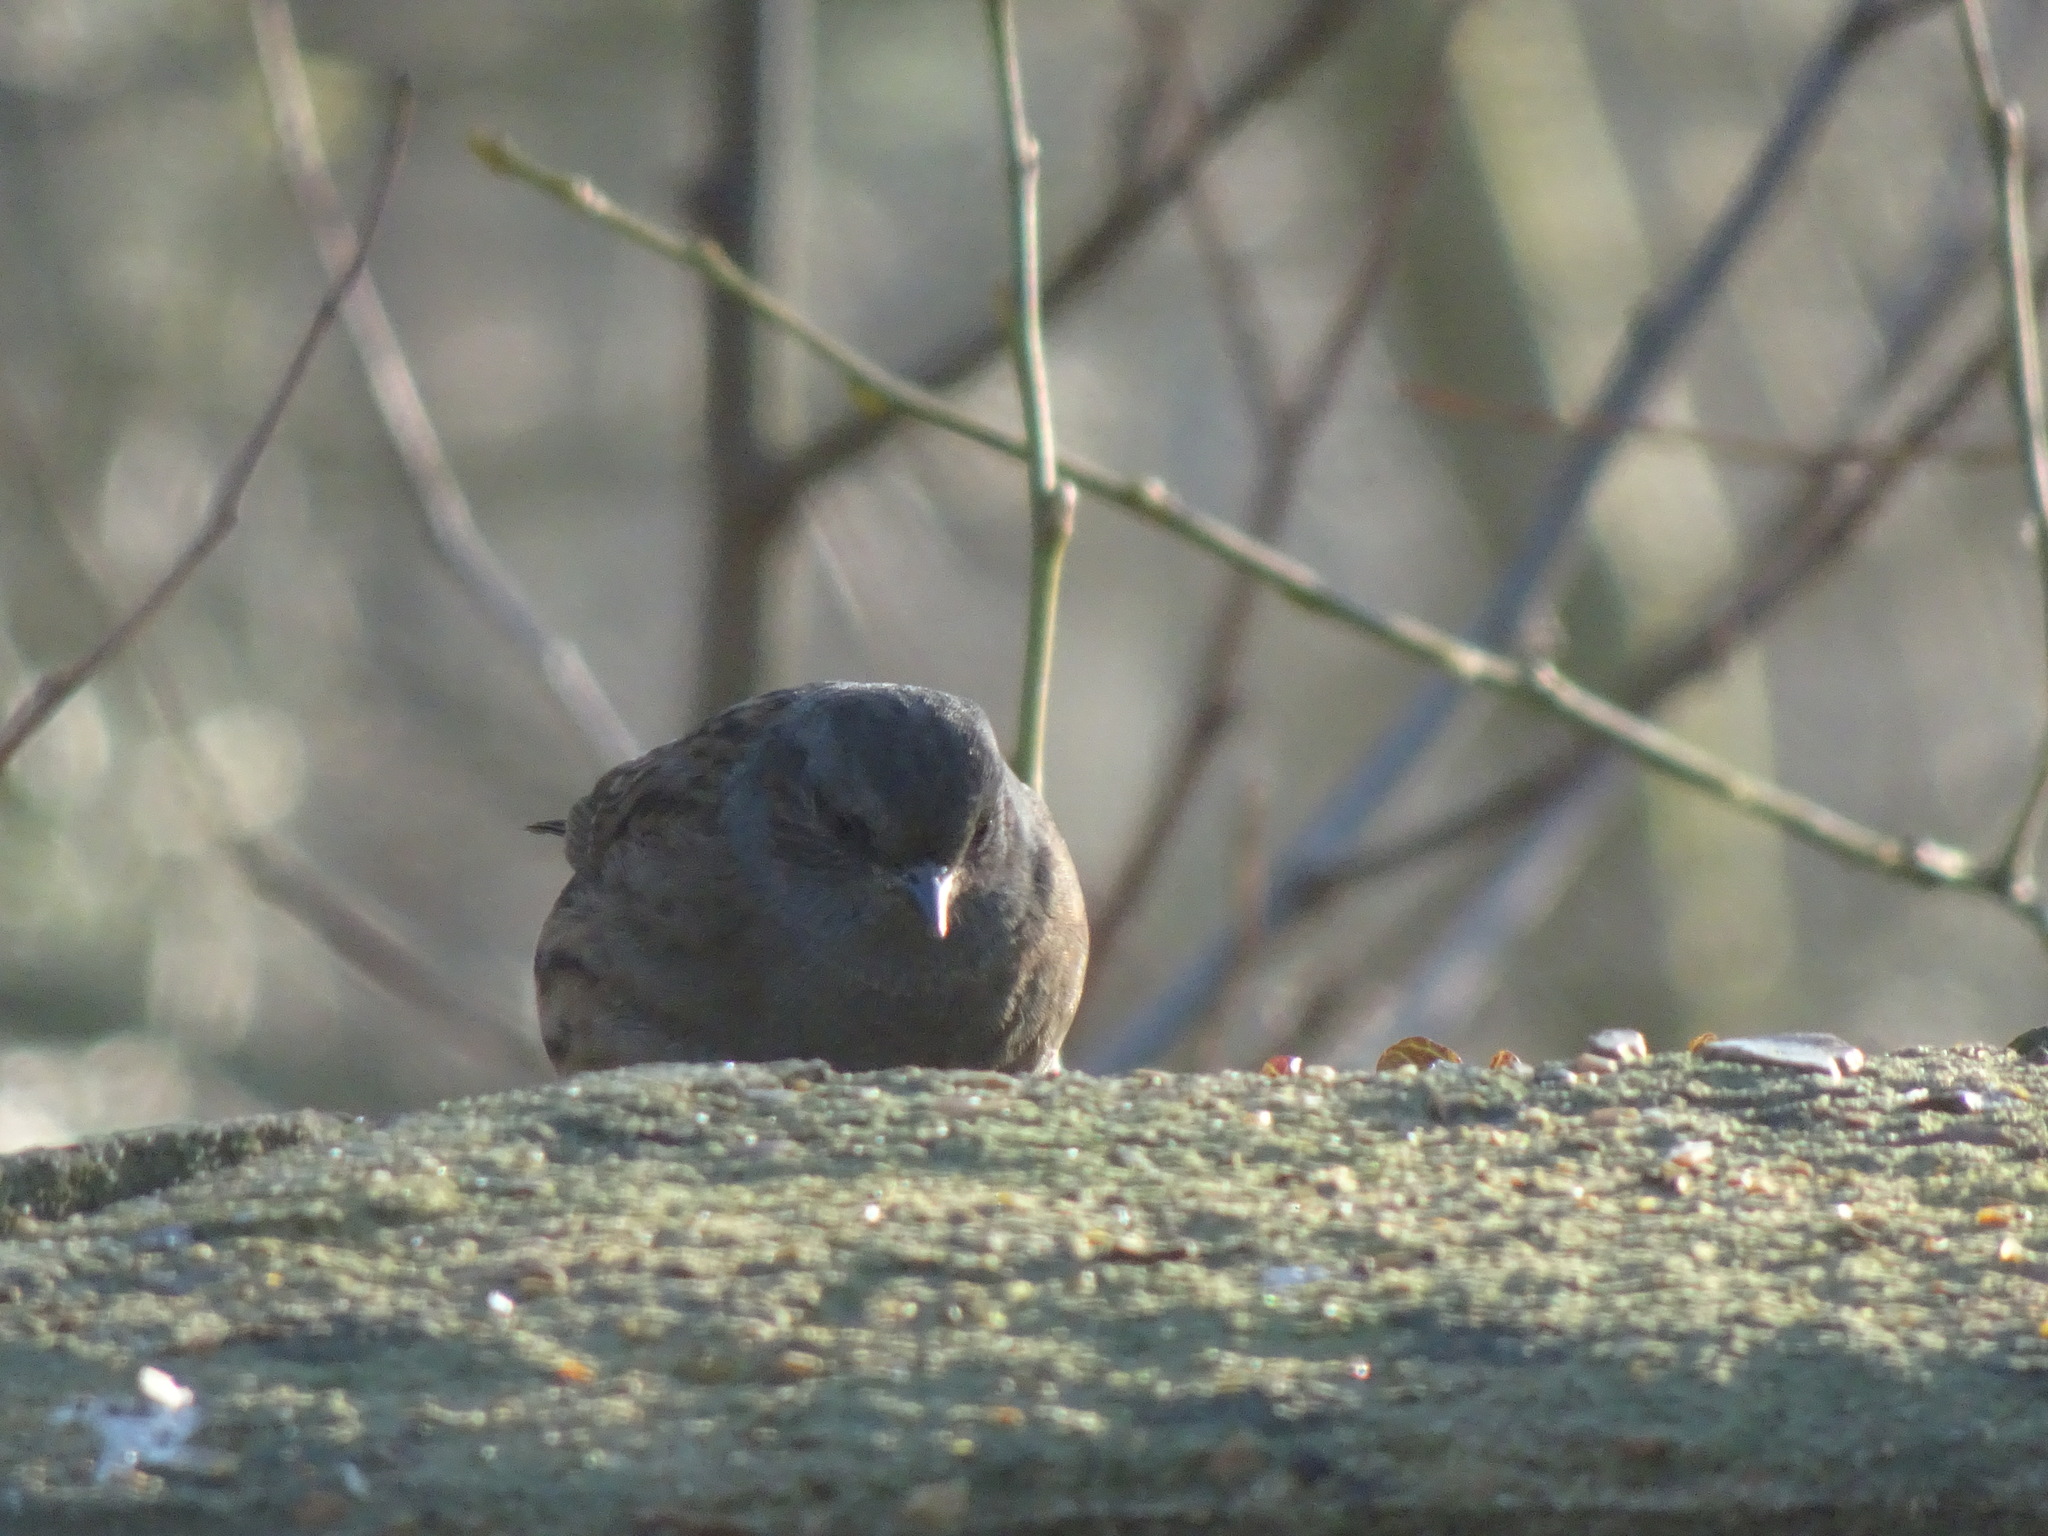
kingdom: Animalia
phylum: Chordata
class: Aves
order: Passeriformes
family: Prunellidae
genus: Prunella
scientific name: Prunella modularis
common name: Dunnock
